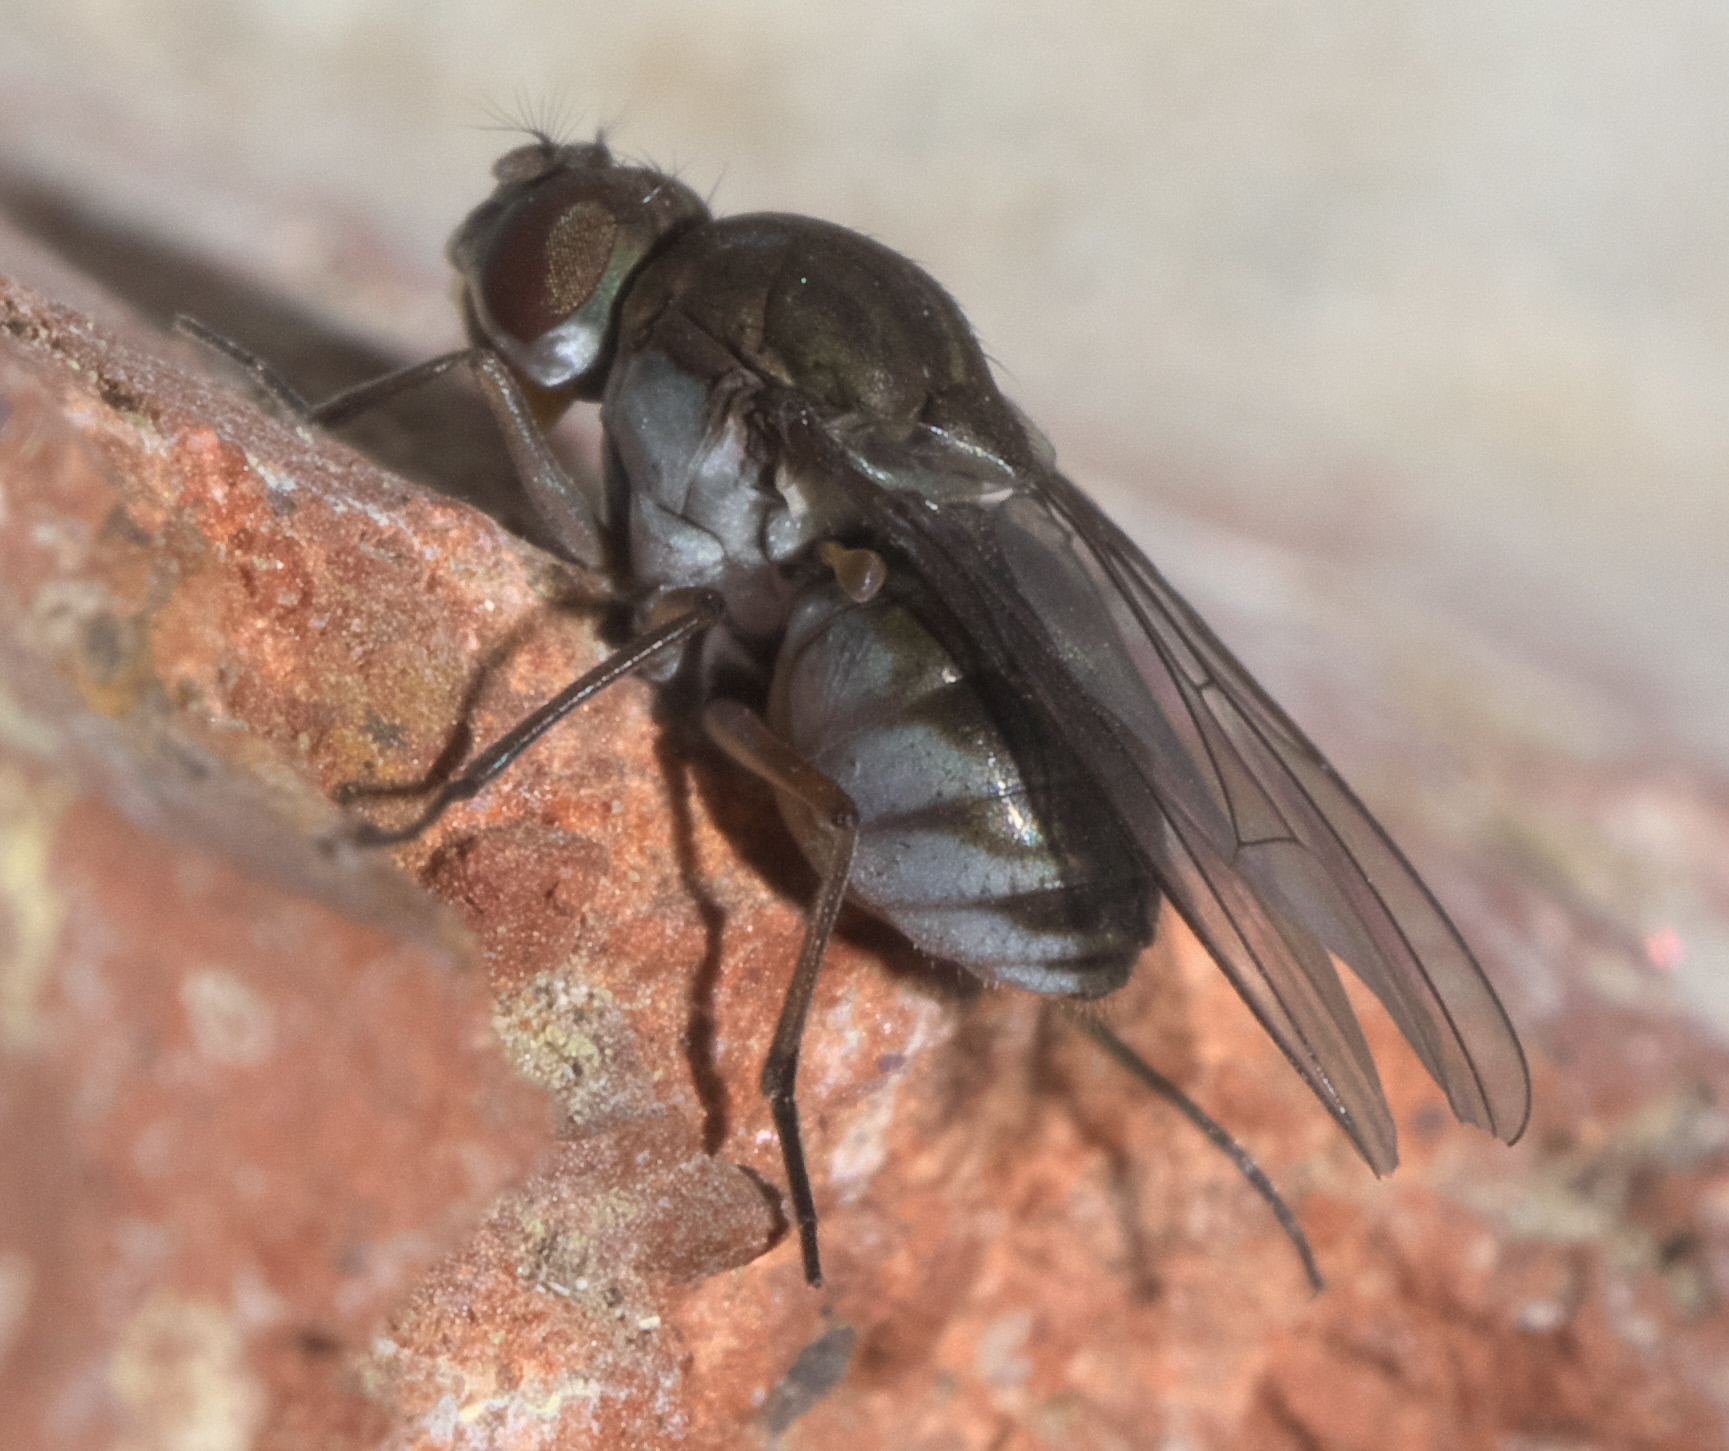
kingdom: Animalia
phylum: Arthropoda
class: Insecta
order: Diptera
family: Ephydridae
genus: Brachydeutera
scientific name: Brachydeutera argentata
